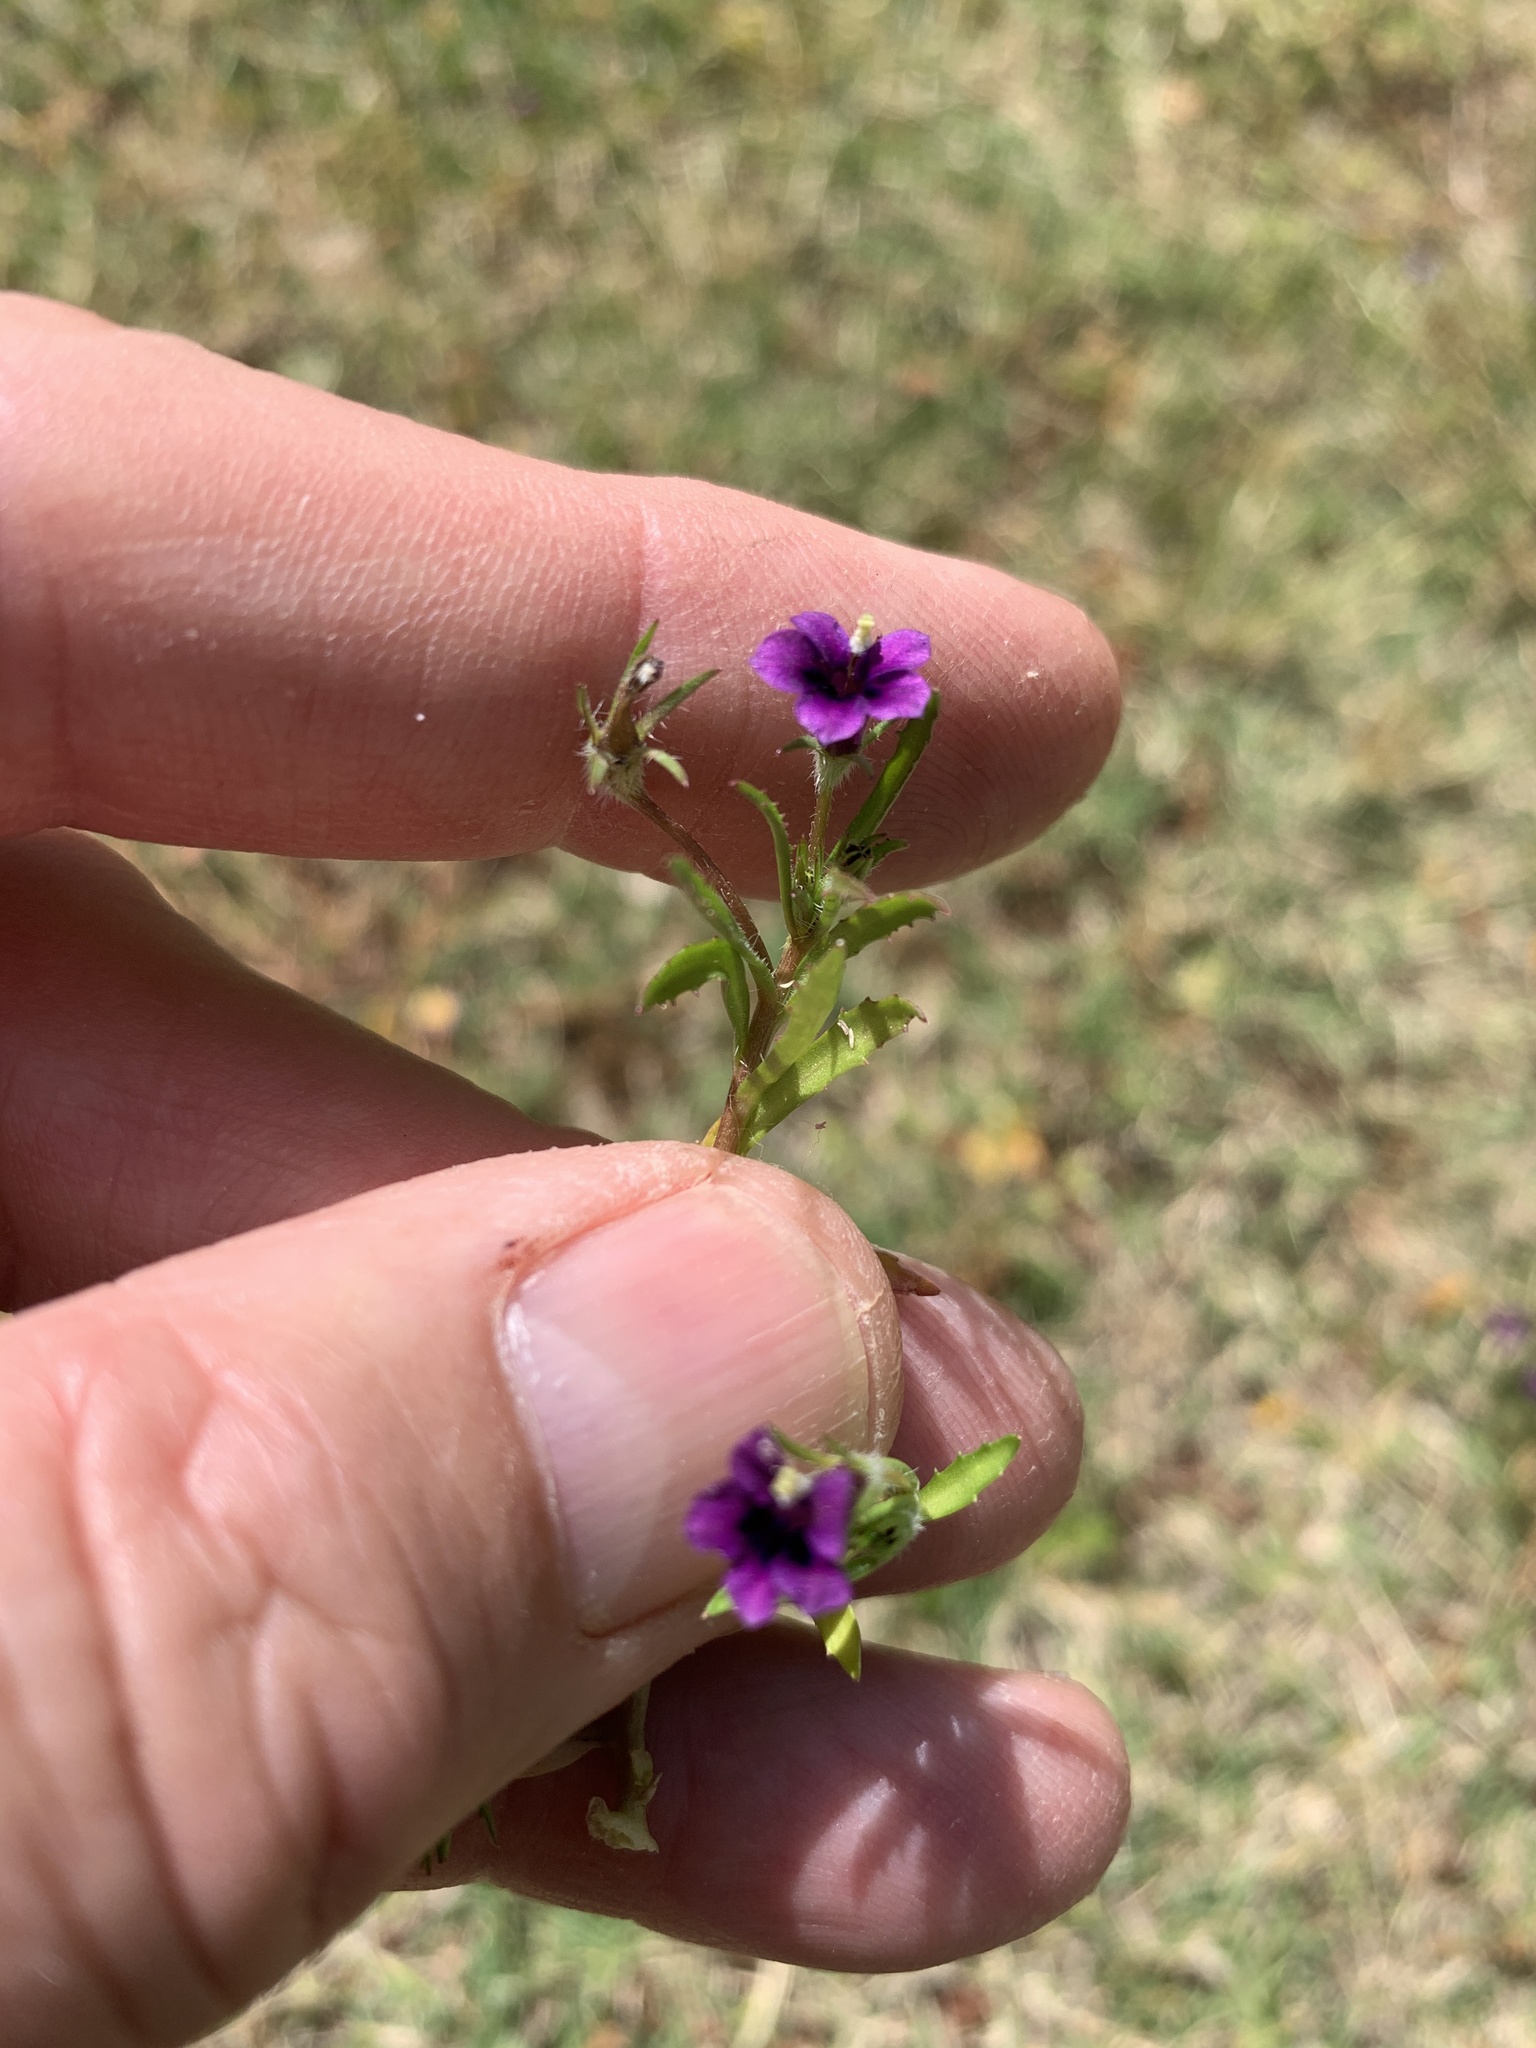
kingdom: Plantae
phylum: Tracheophyta
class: Magnoliopsida
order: Asterales
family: Campanulaceae
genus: Monopsis
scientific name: Monopsis debilis
